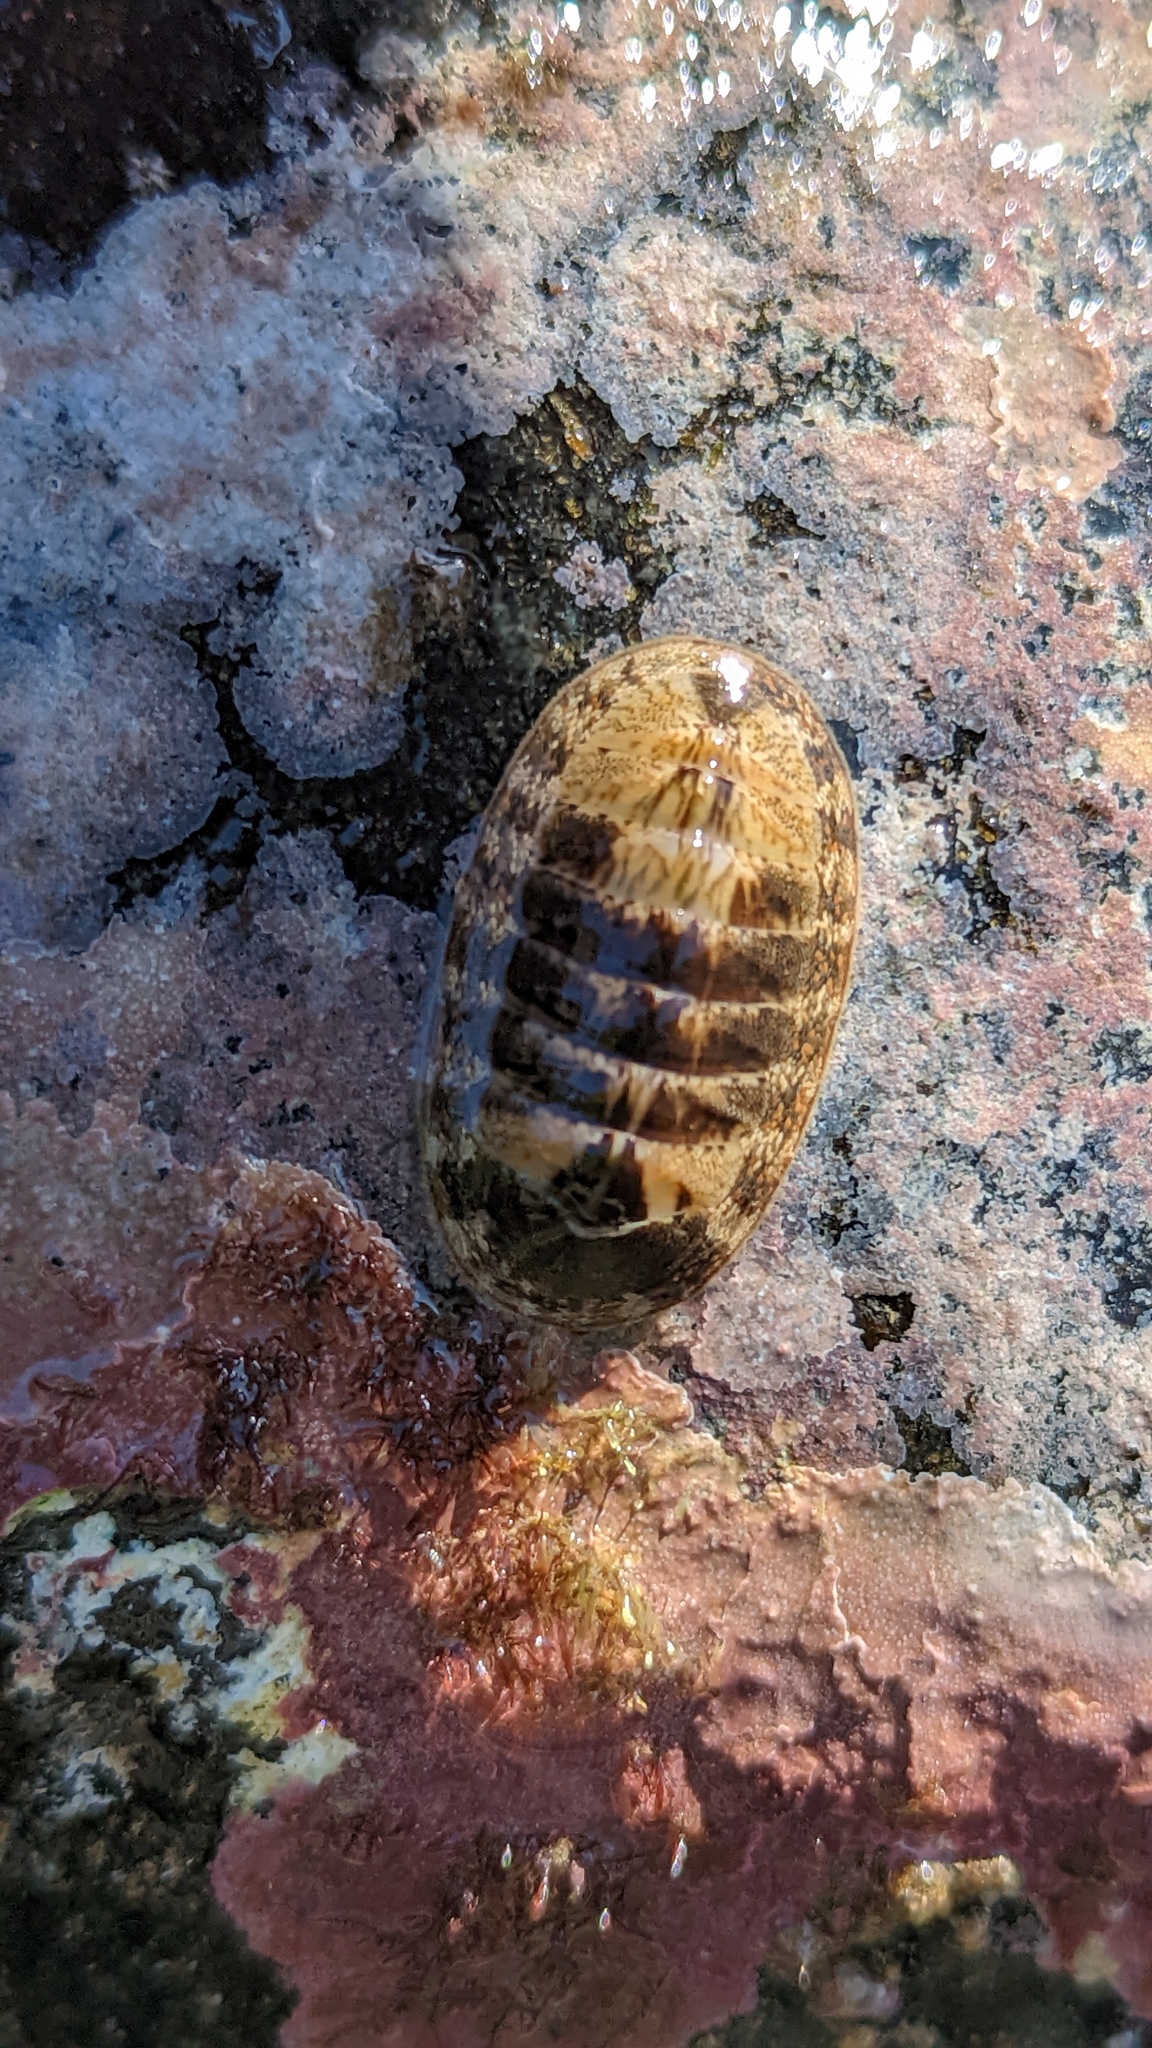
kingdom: Animalia
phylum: Mollusca
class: Polyplacophora
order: Chitonida
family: Ischnochitonidae
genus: Ischnochiton
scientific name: Ischnochiton dispar
